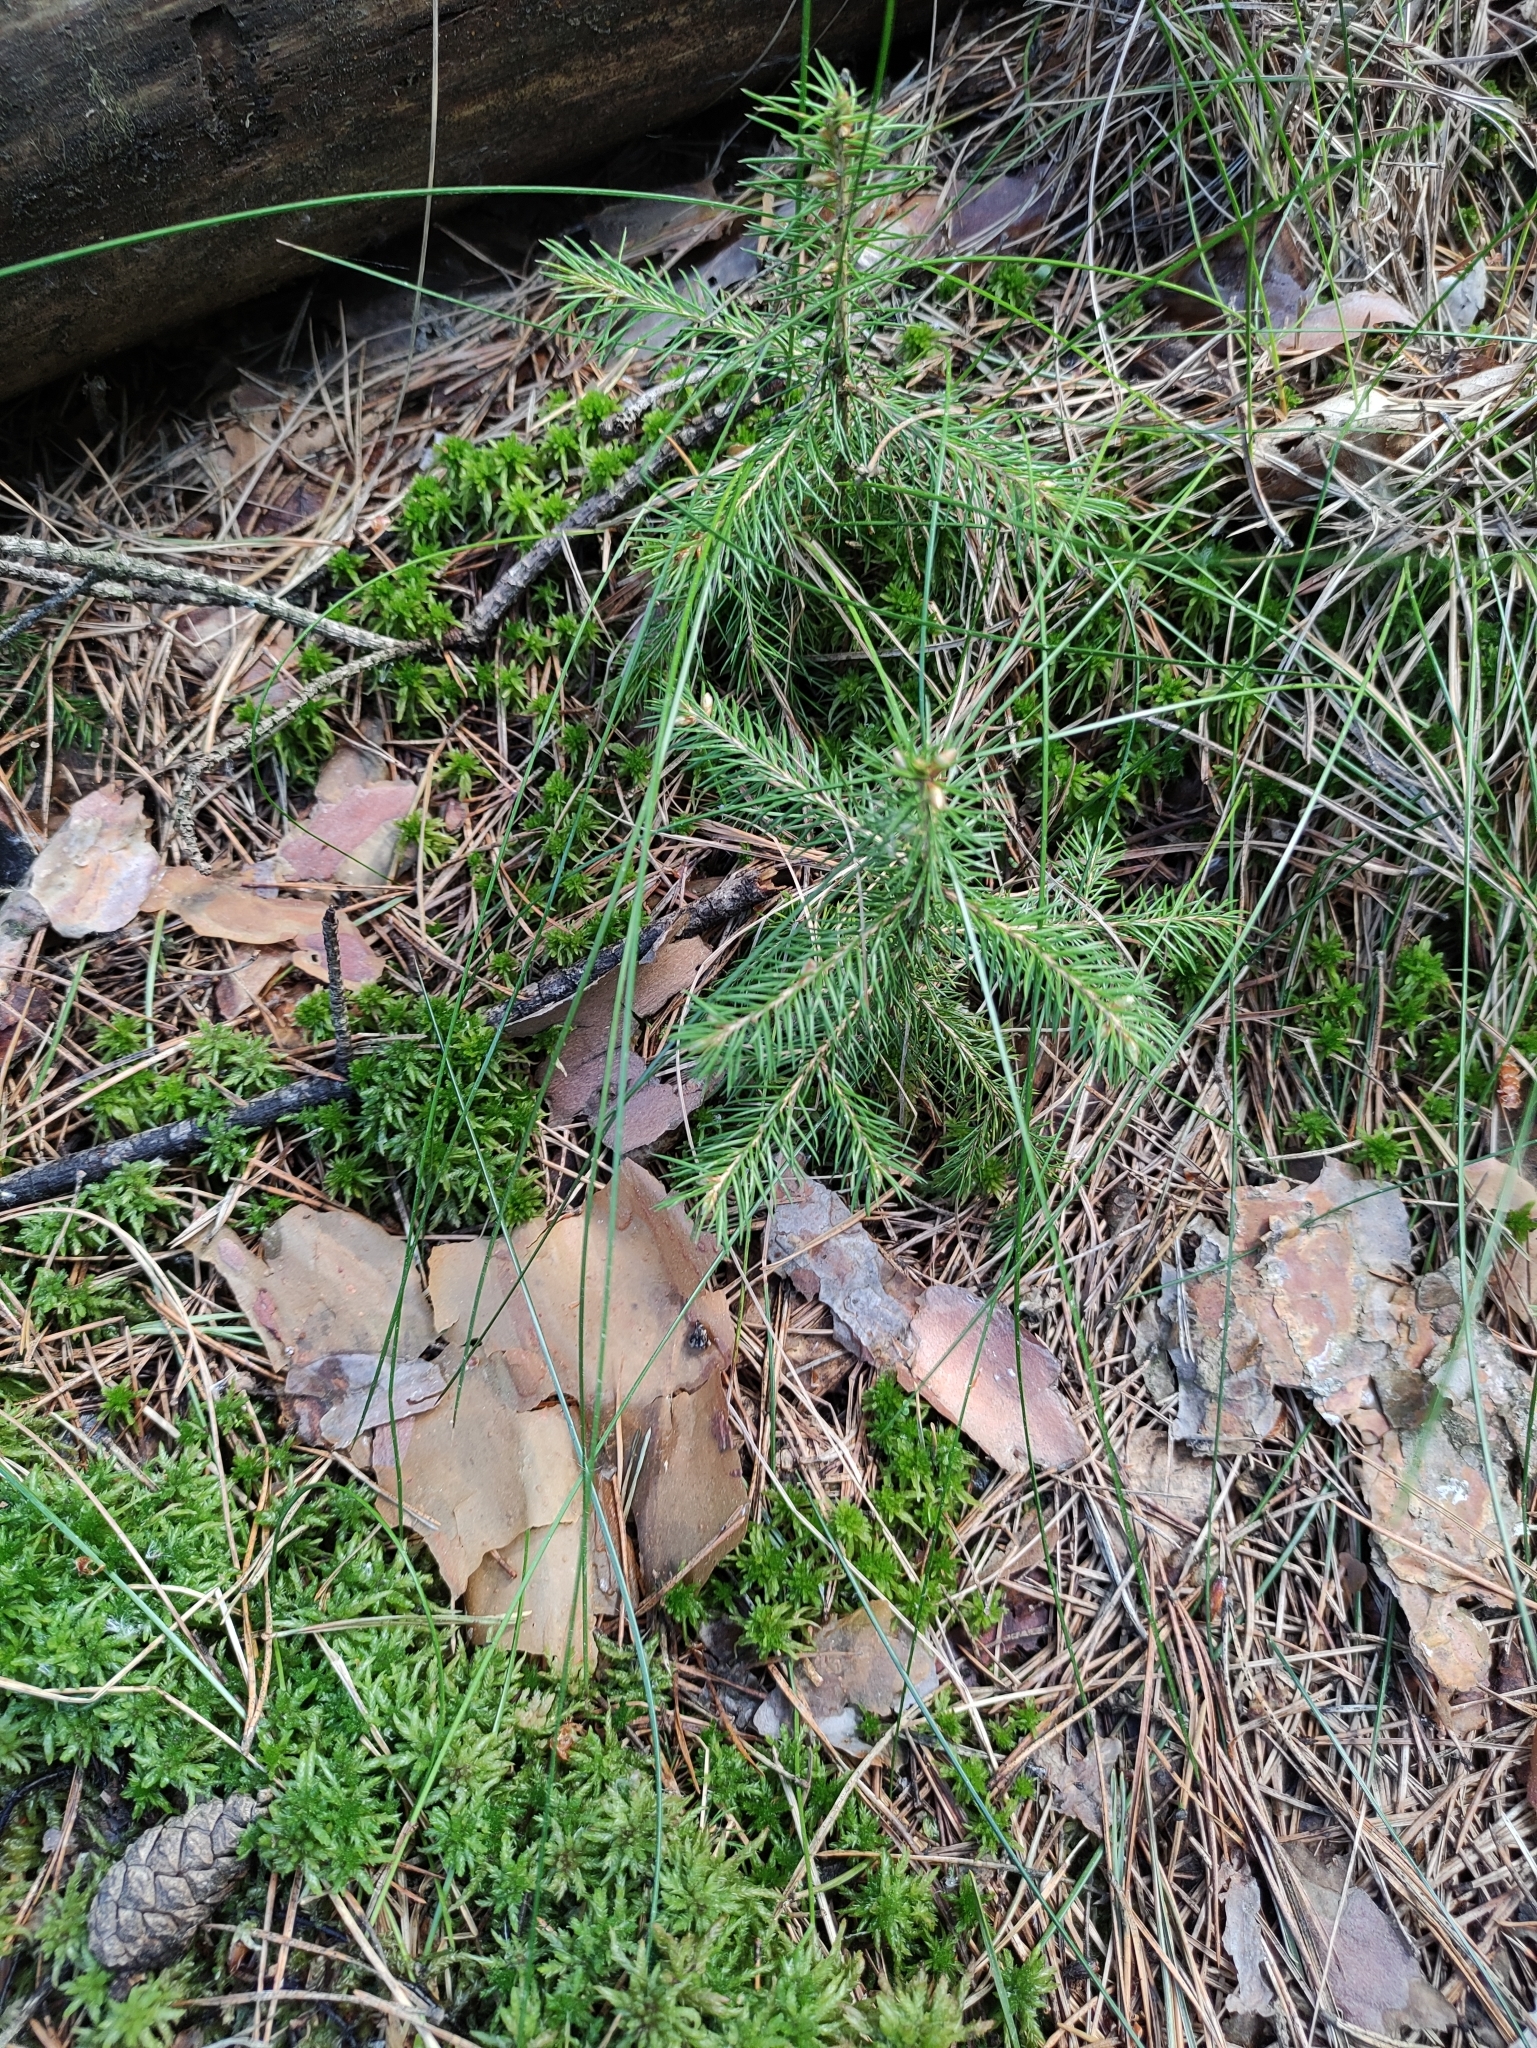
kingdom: Plantae
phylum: Tracheophyta
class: Pinopsida
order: Pinales
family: Pinaceae
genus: Picea
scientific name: Picea abies
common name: Norway spruce
